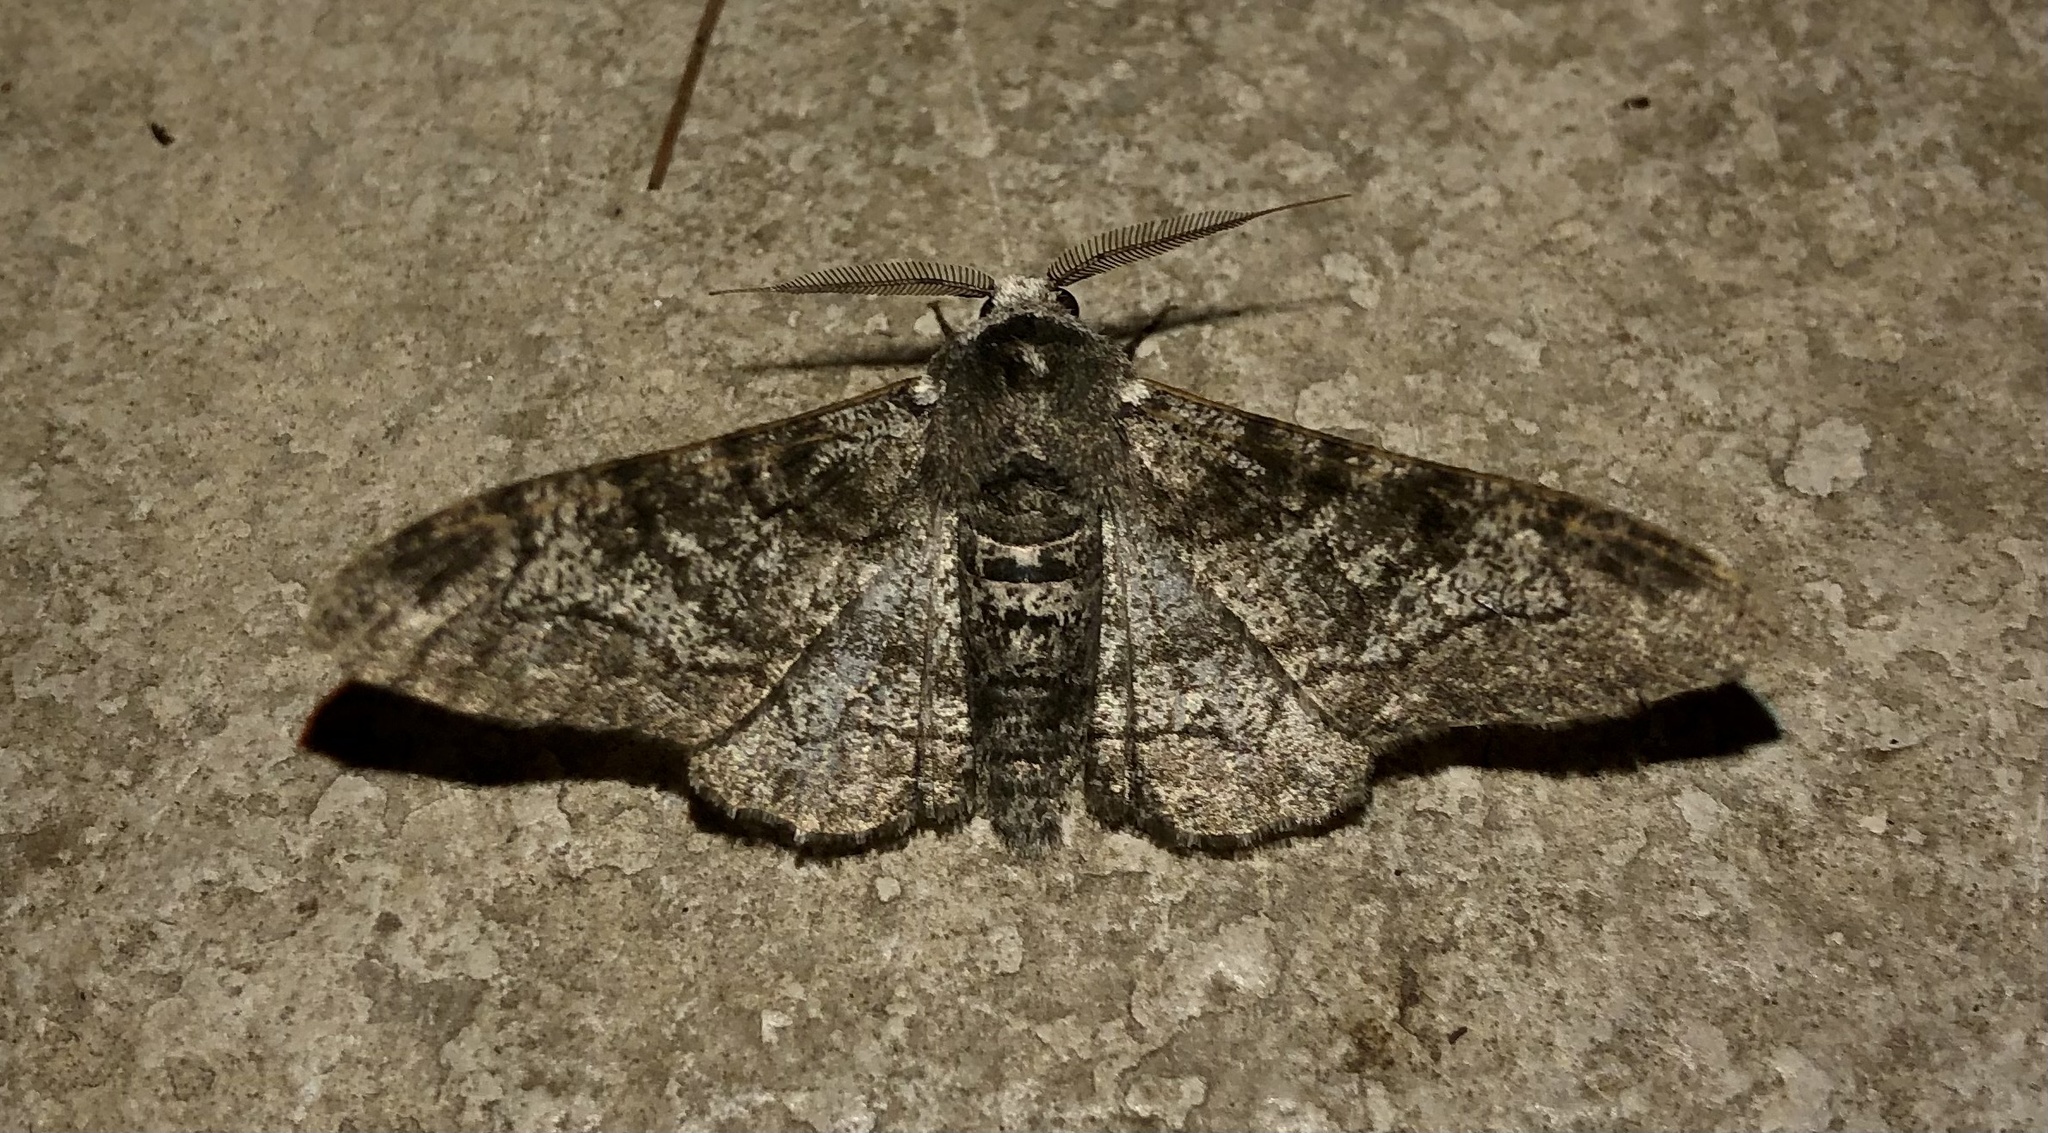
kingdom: Animalia
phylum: Arthropoda
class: Insecta
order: Lepidoptera
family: Geometridae
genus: Biston
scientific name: Biston betularia
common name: Peppered moth
